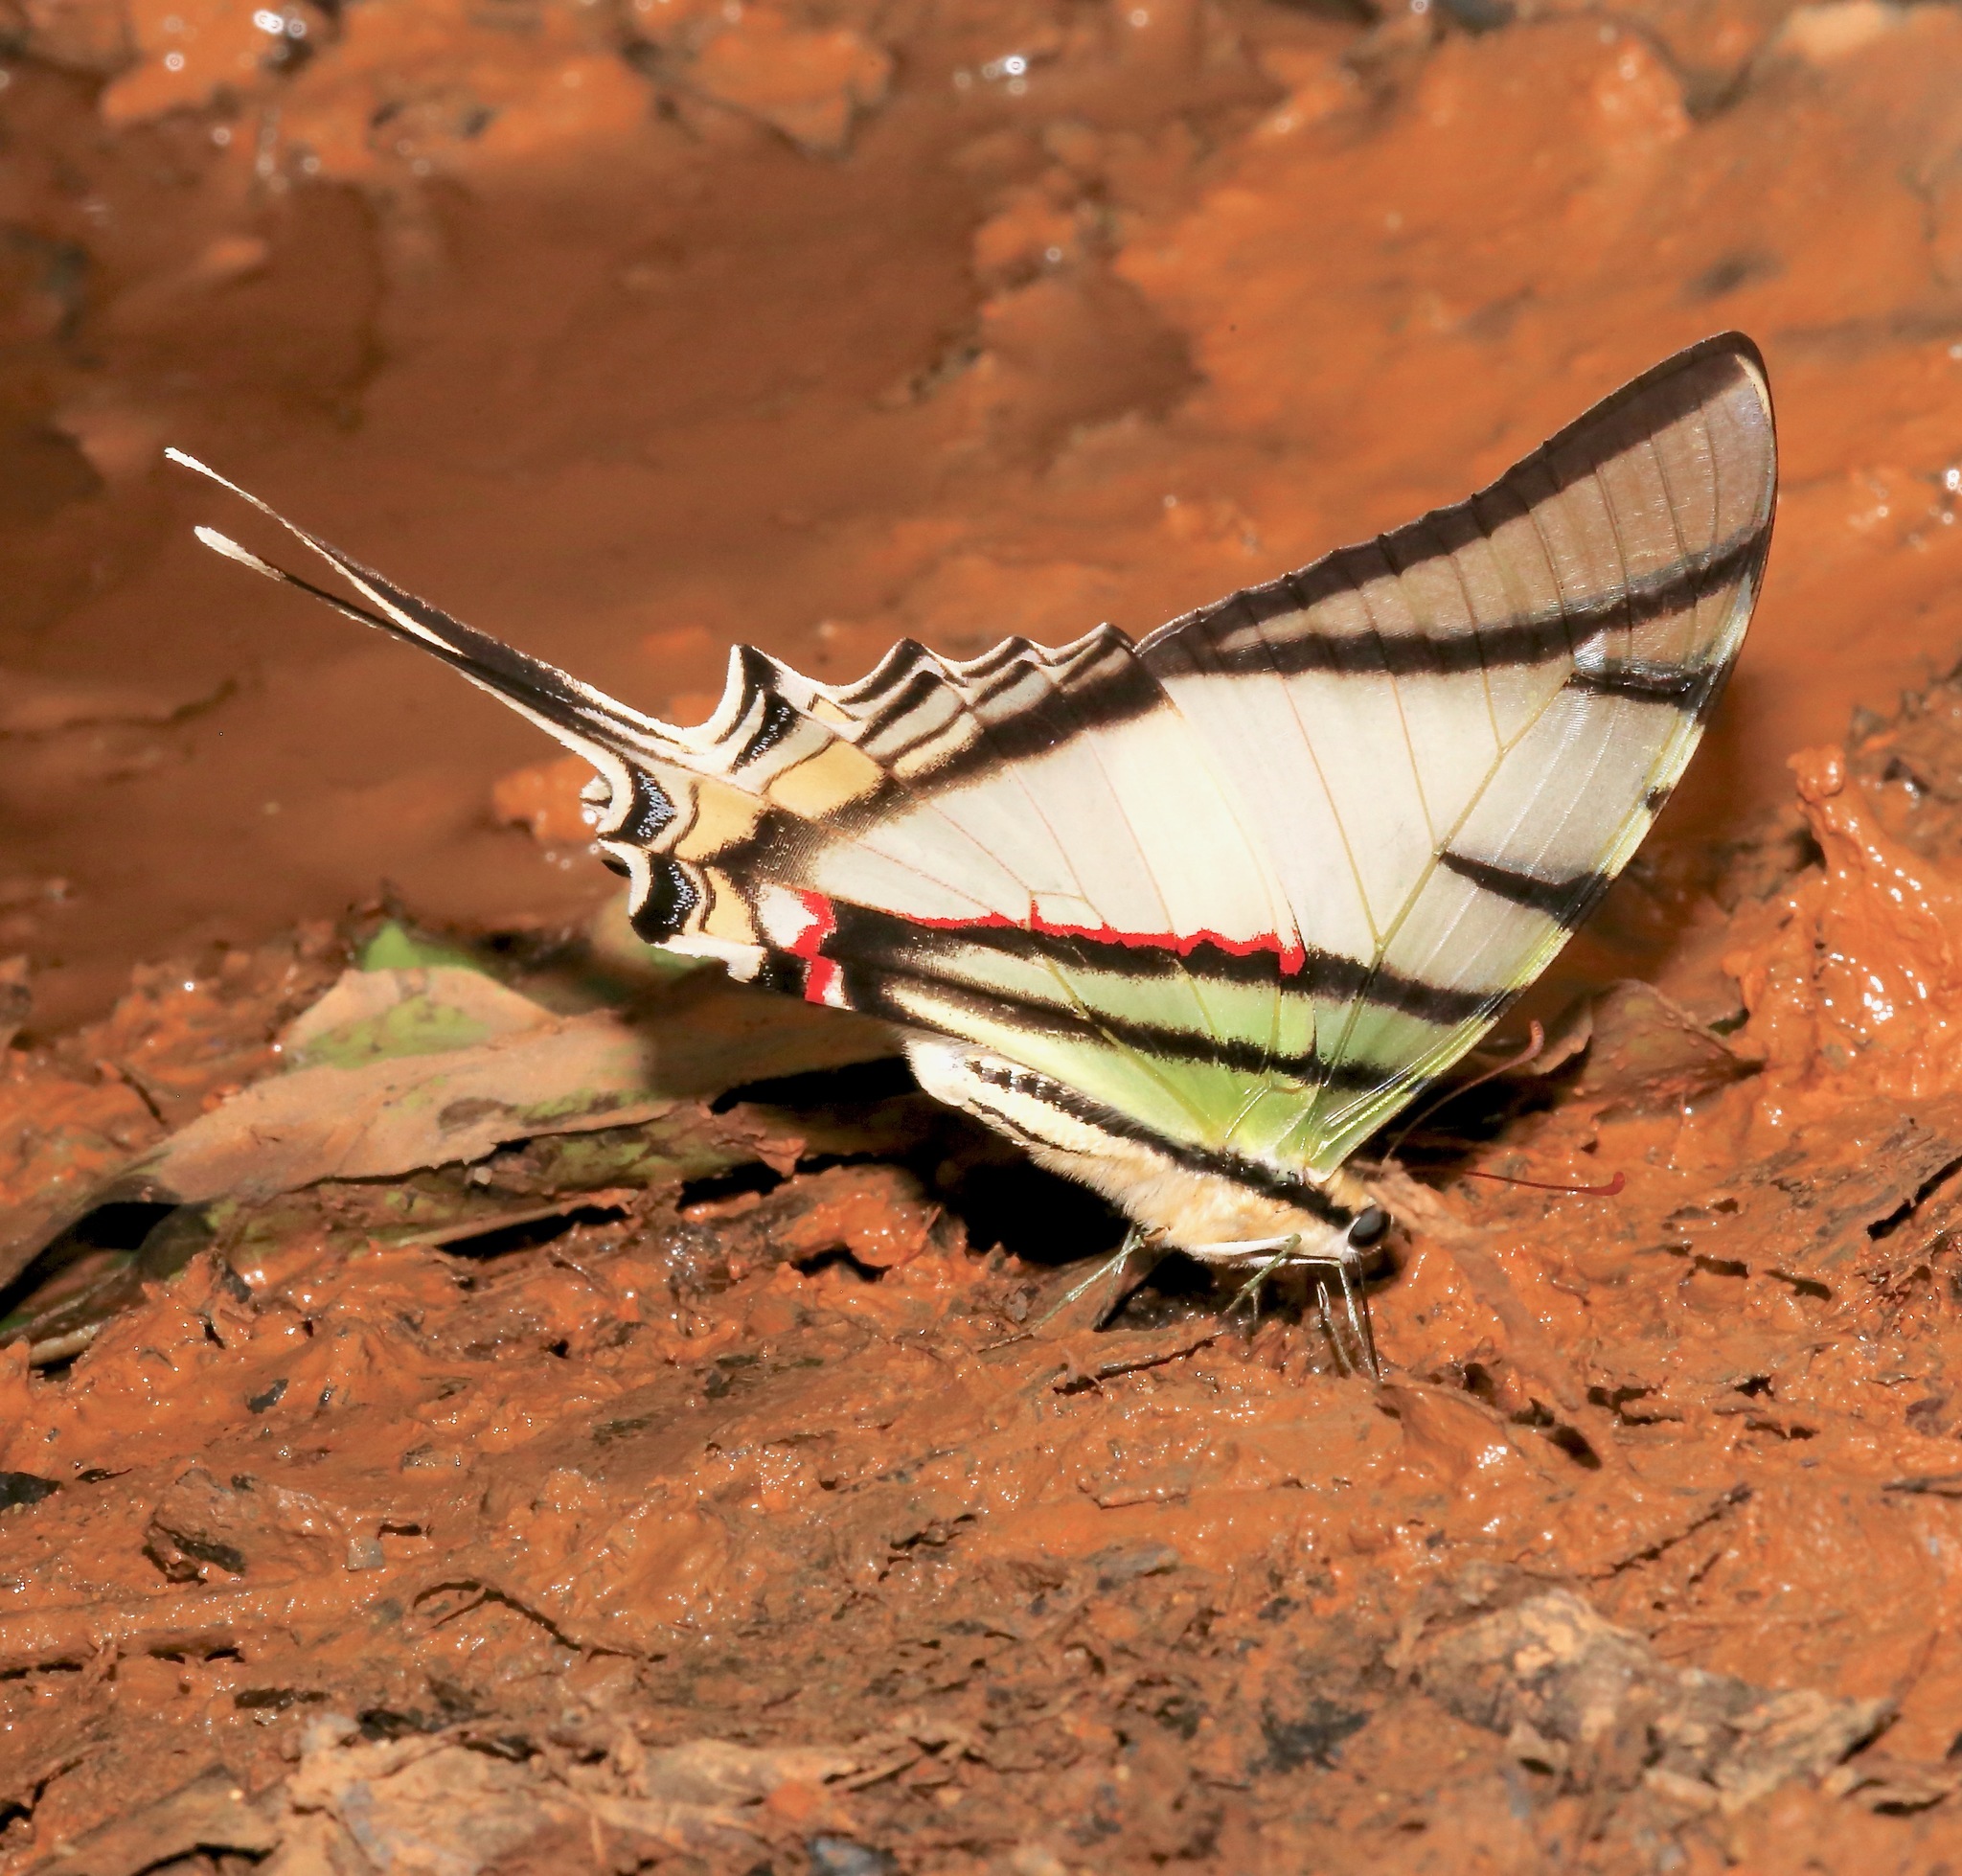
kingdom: Animalia
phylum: Arthropoda
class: Insecta
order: Lepidoptera
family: Papilionidae
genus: Protesilaus
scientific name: Protesilaus telesilaus
